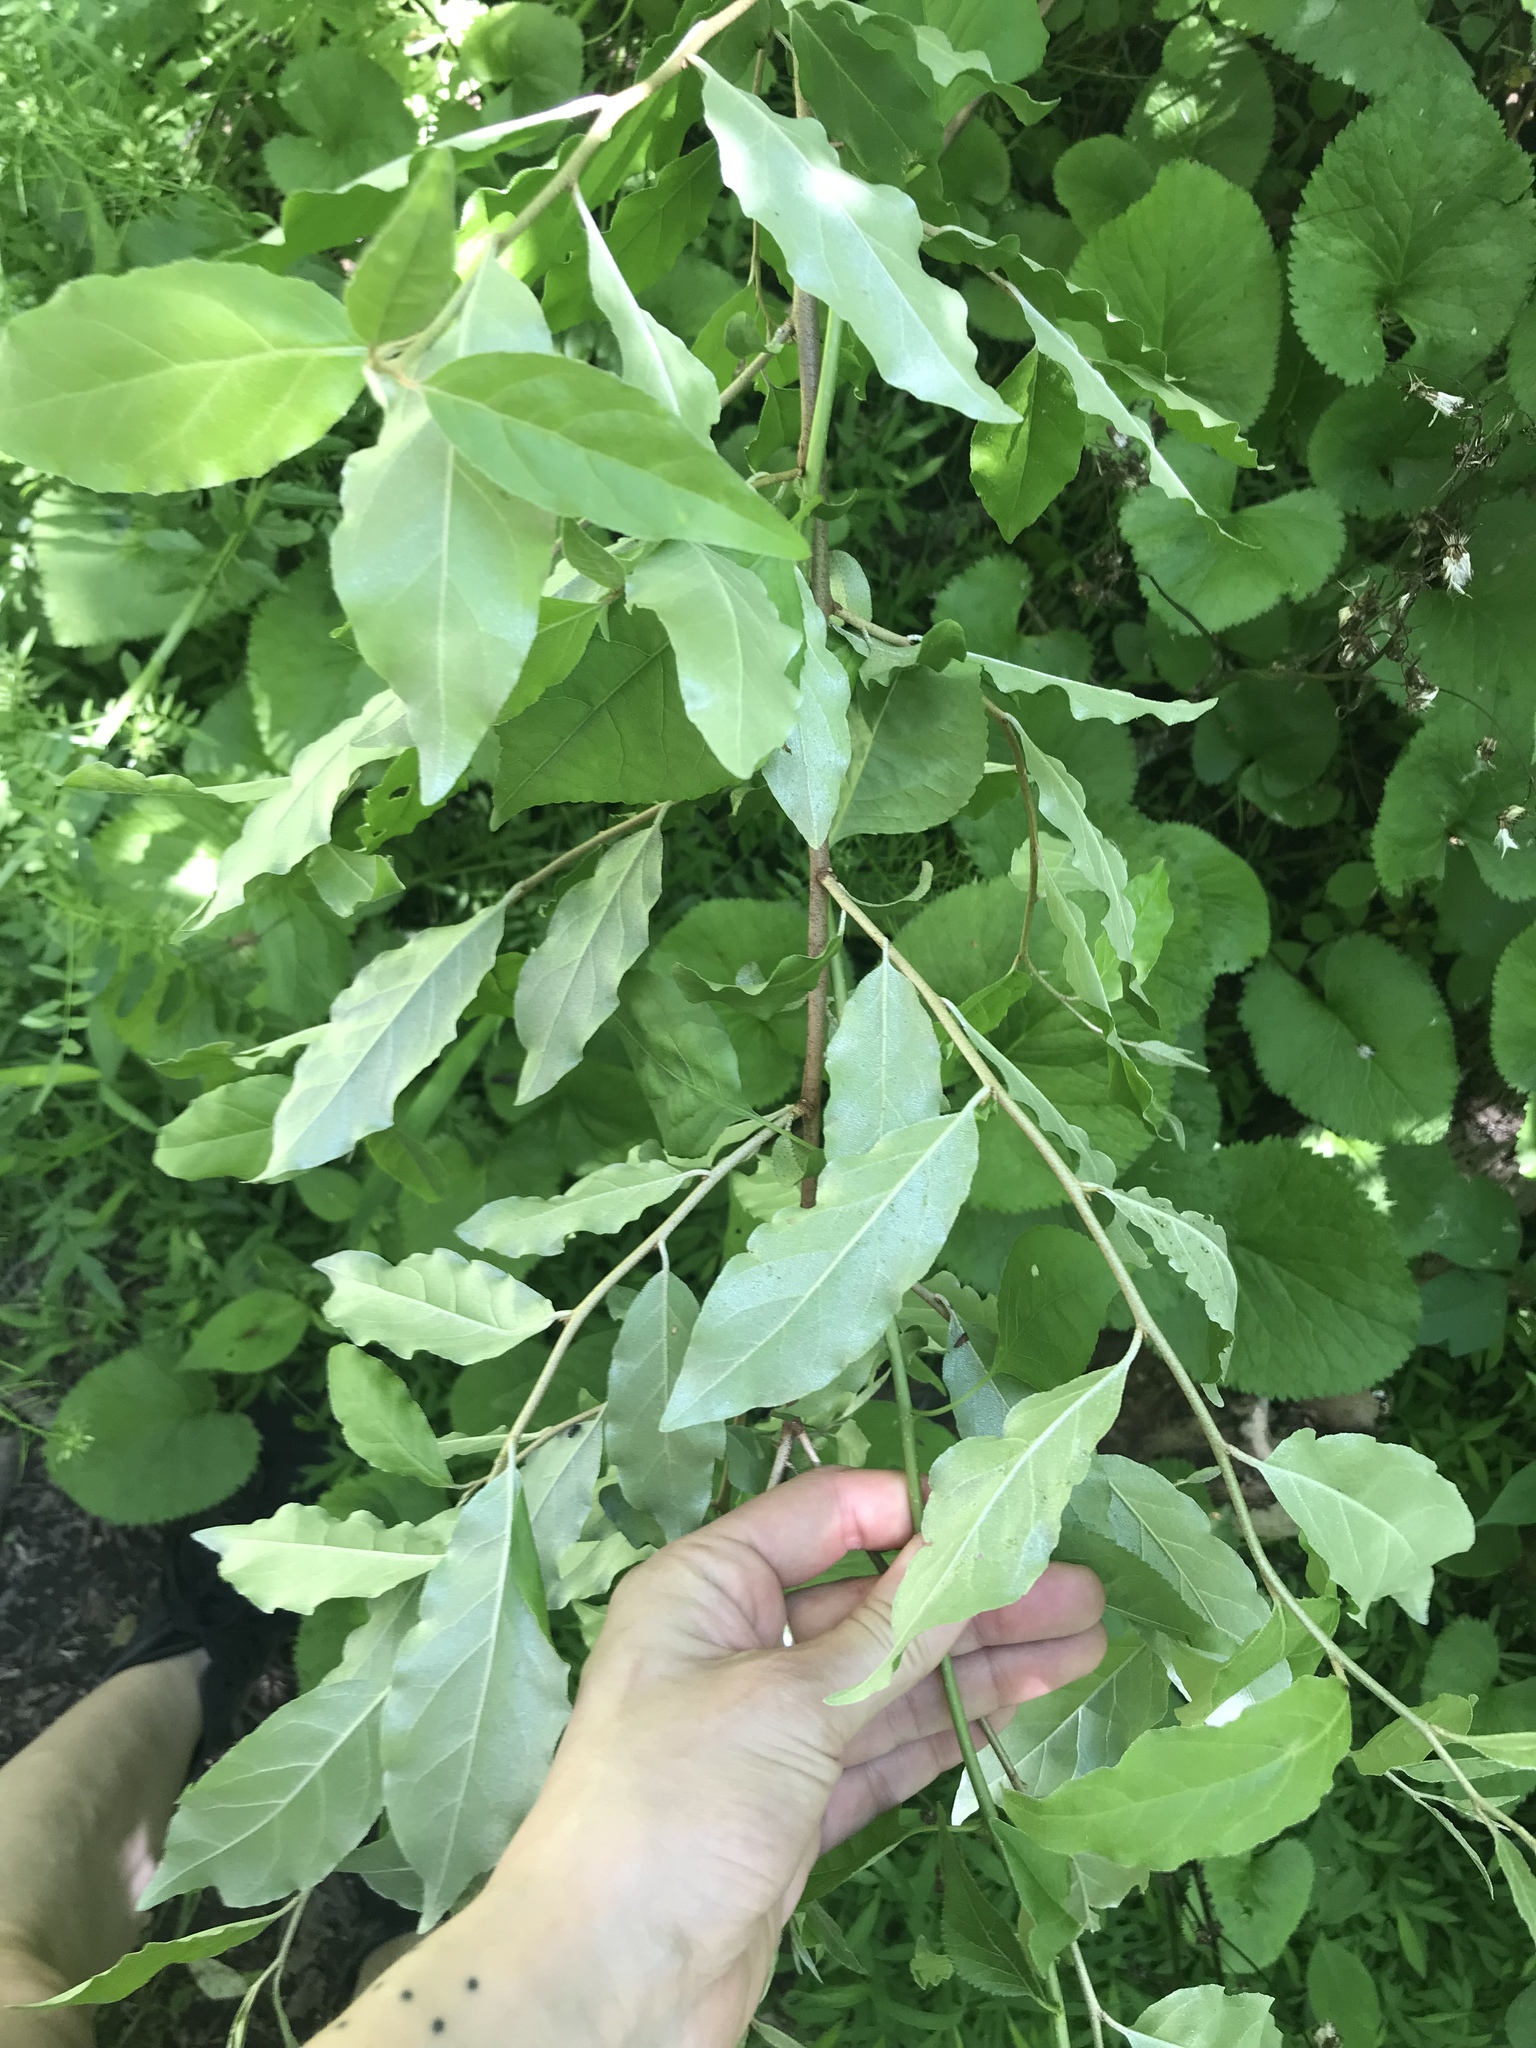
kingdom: Plantae
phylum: Tracheophyta
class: Magnoliopsida
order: Rosales
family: Elaeagnaceae
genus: Elaeagnus
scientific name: Elaeagnus umbellata
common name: Autumn olive
